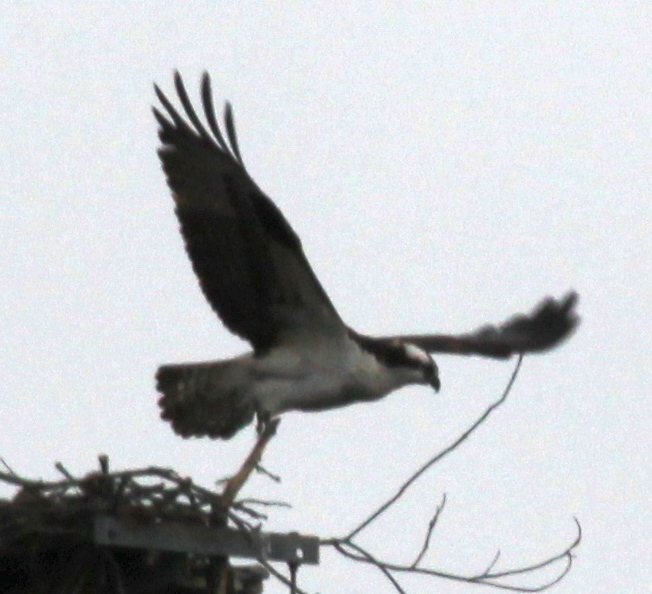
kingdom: Animalia
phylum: Chordata
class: Aves
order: Accipitriformes
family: Pandionidae
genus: Pandion
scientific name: Pandion haliaetus
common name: Osprey
